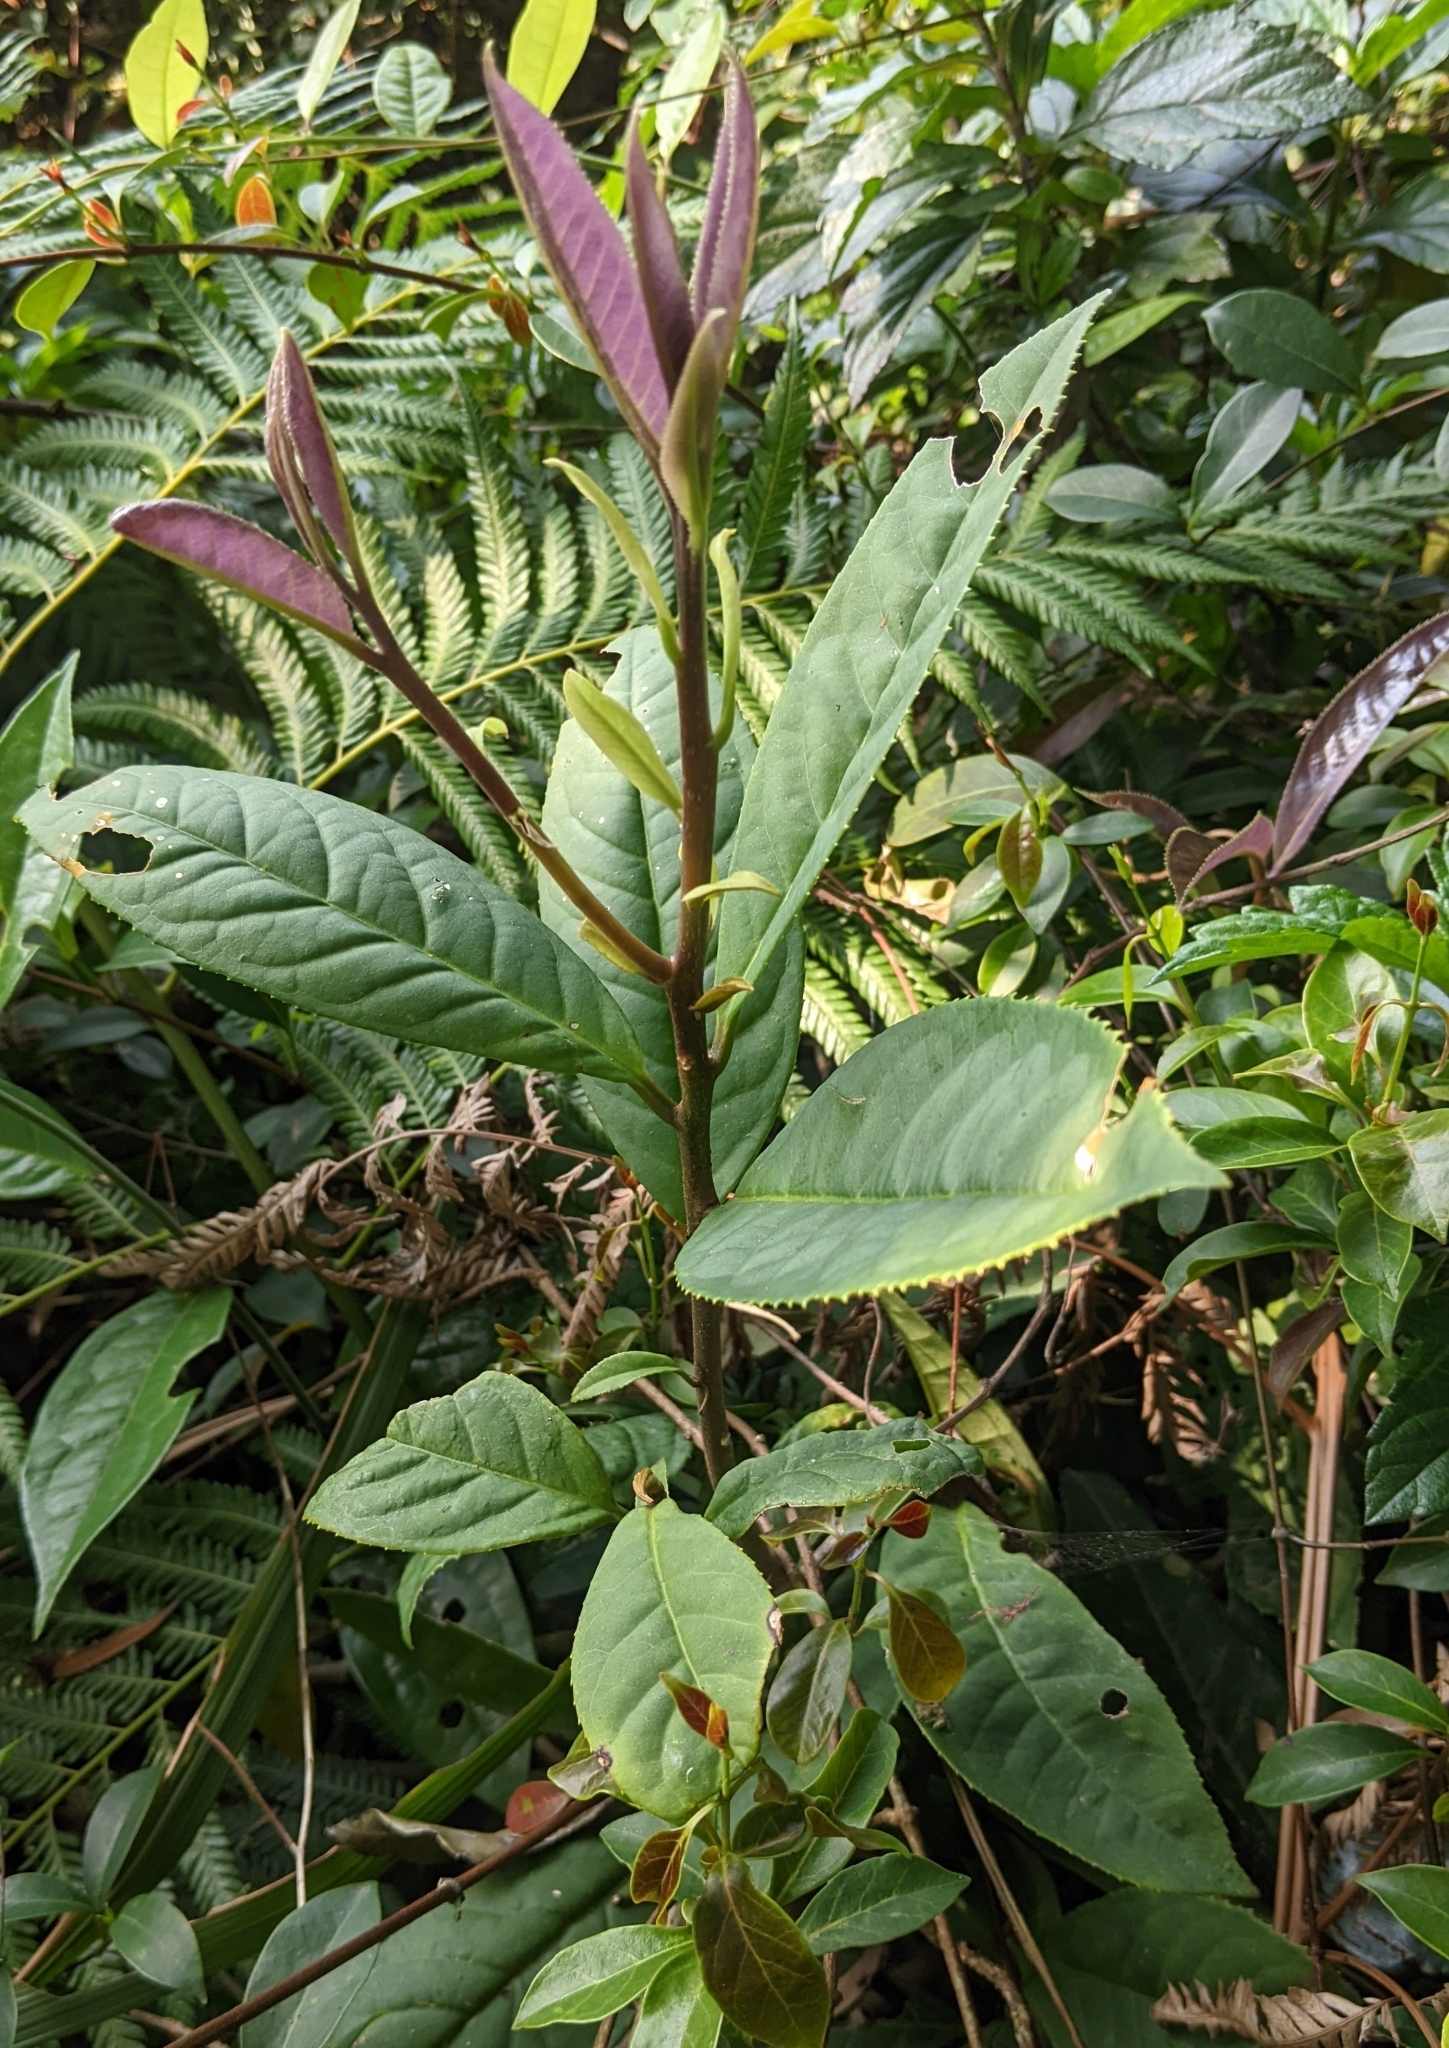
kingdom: Plantae
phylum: Tracheophyta
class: Magnoliopsida
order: Ericales
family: Symplocaceae
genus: Symplocos
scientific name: Symplocos acuminata
